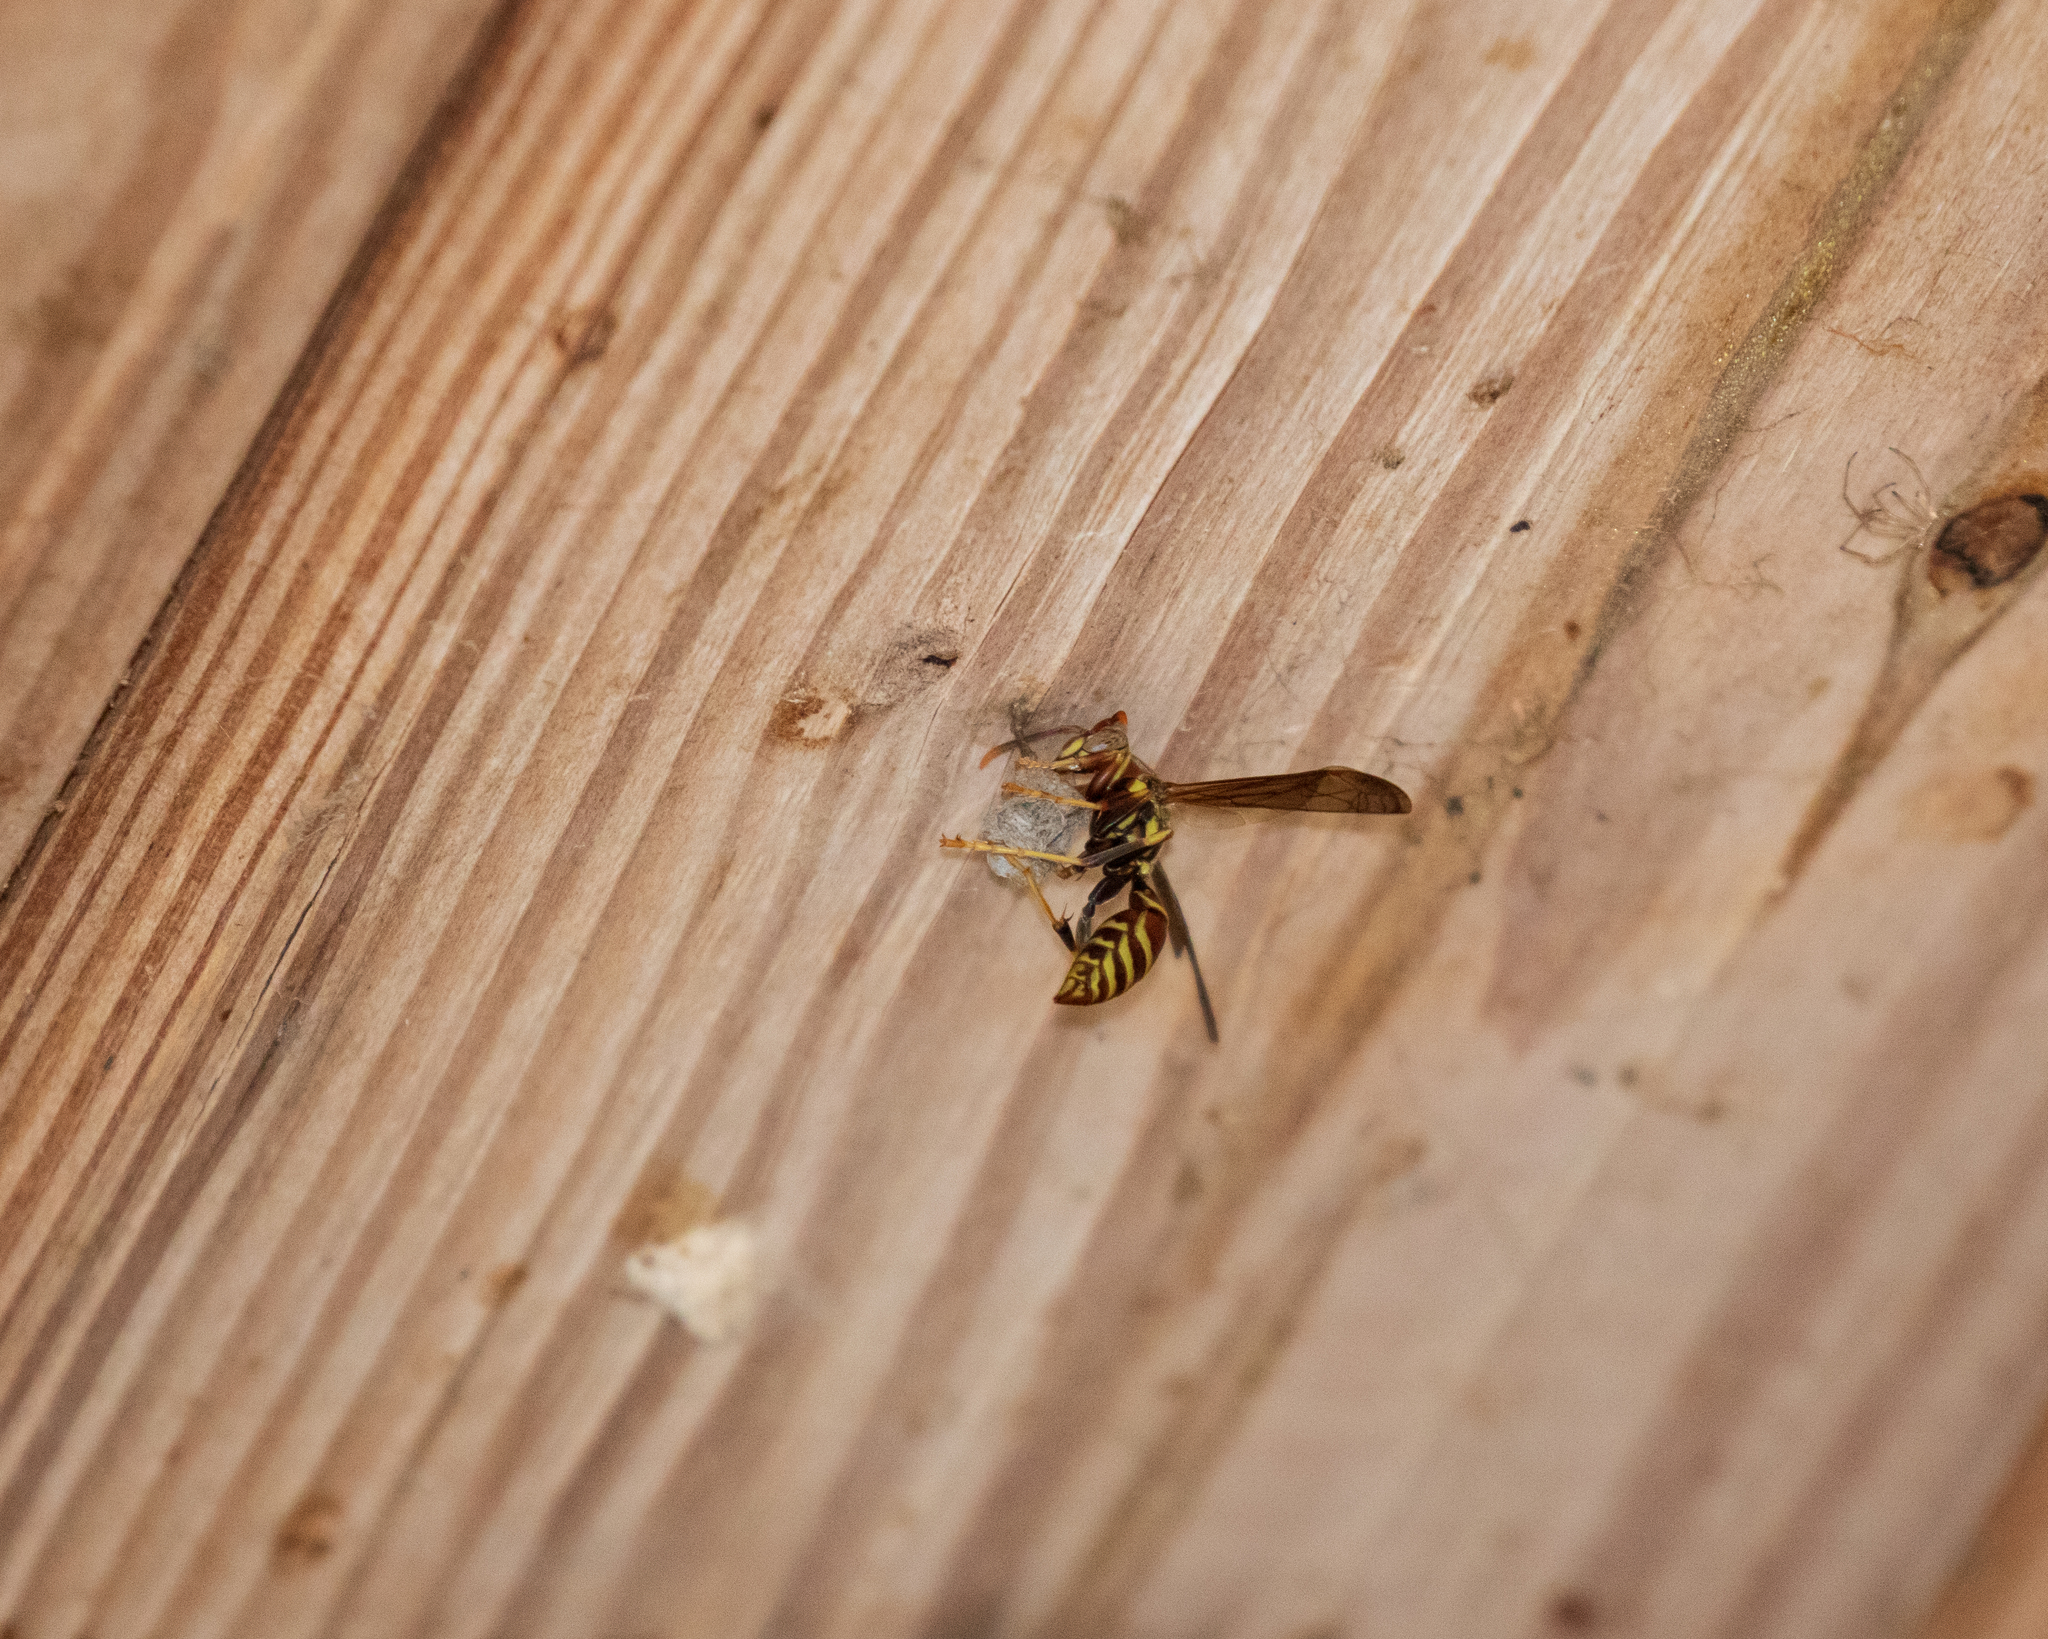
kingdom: Animalia
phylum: Arthropoda
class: Insecta
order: Hymenoptera
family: Eumenidae
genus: Polistes
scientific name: Polistes exclamans
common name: Paper wasp
